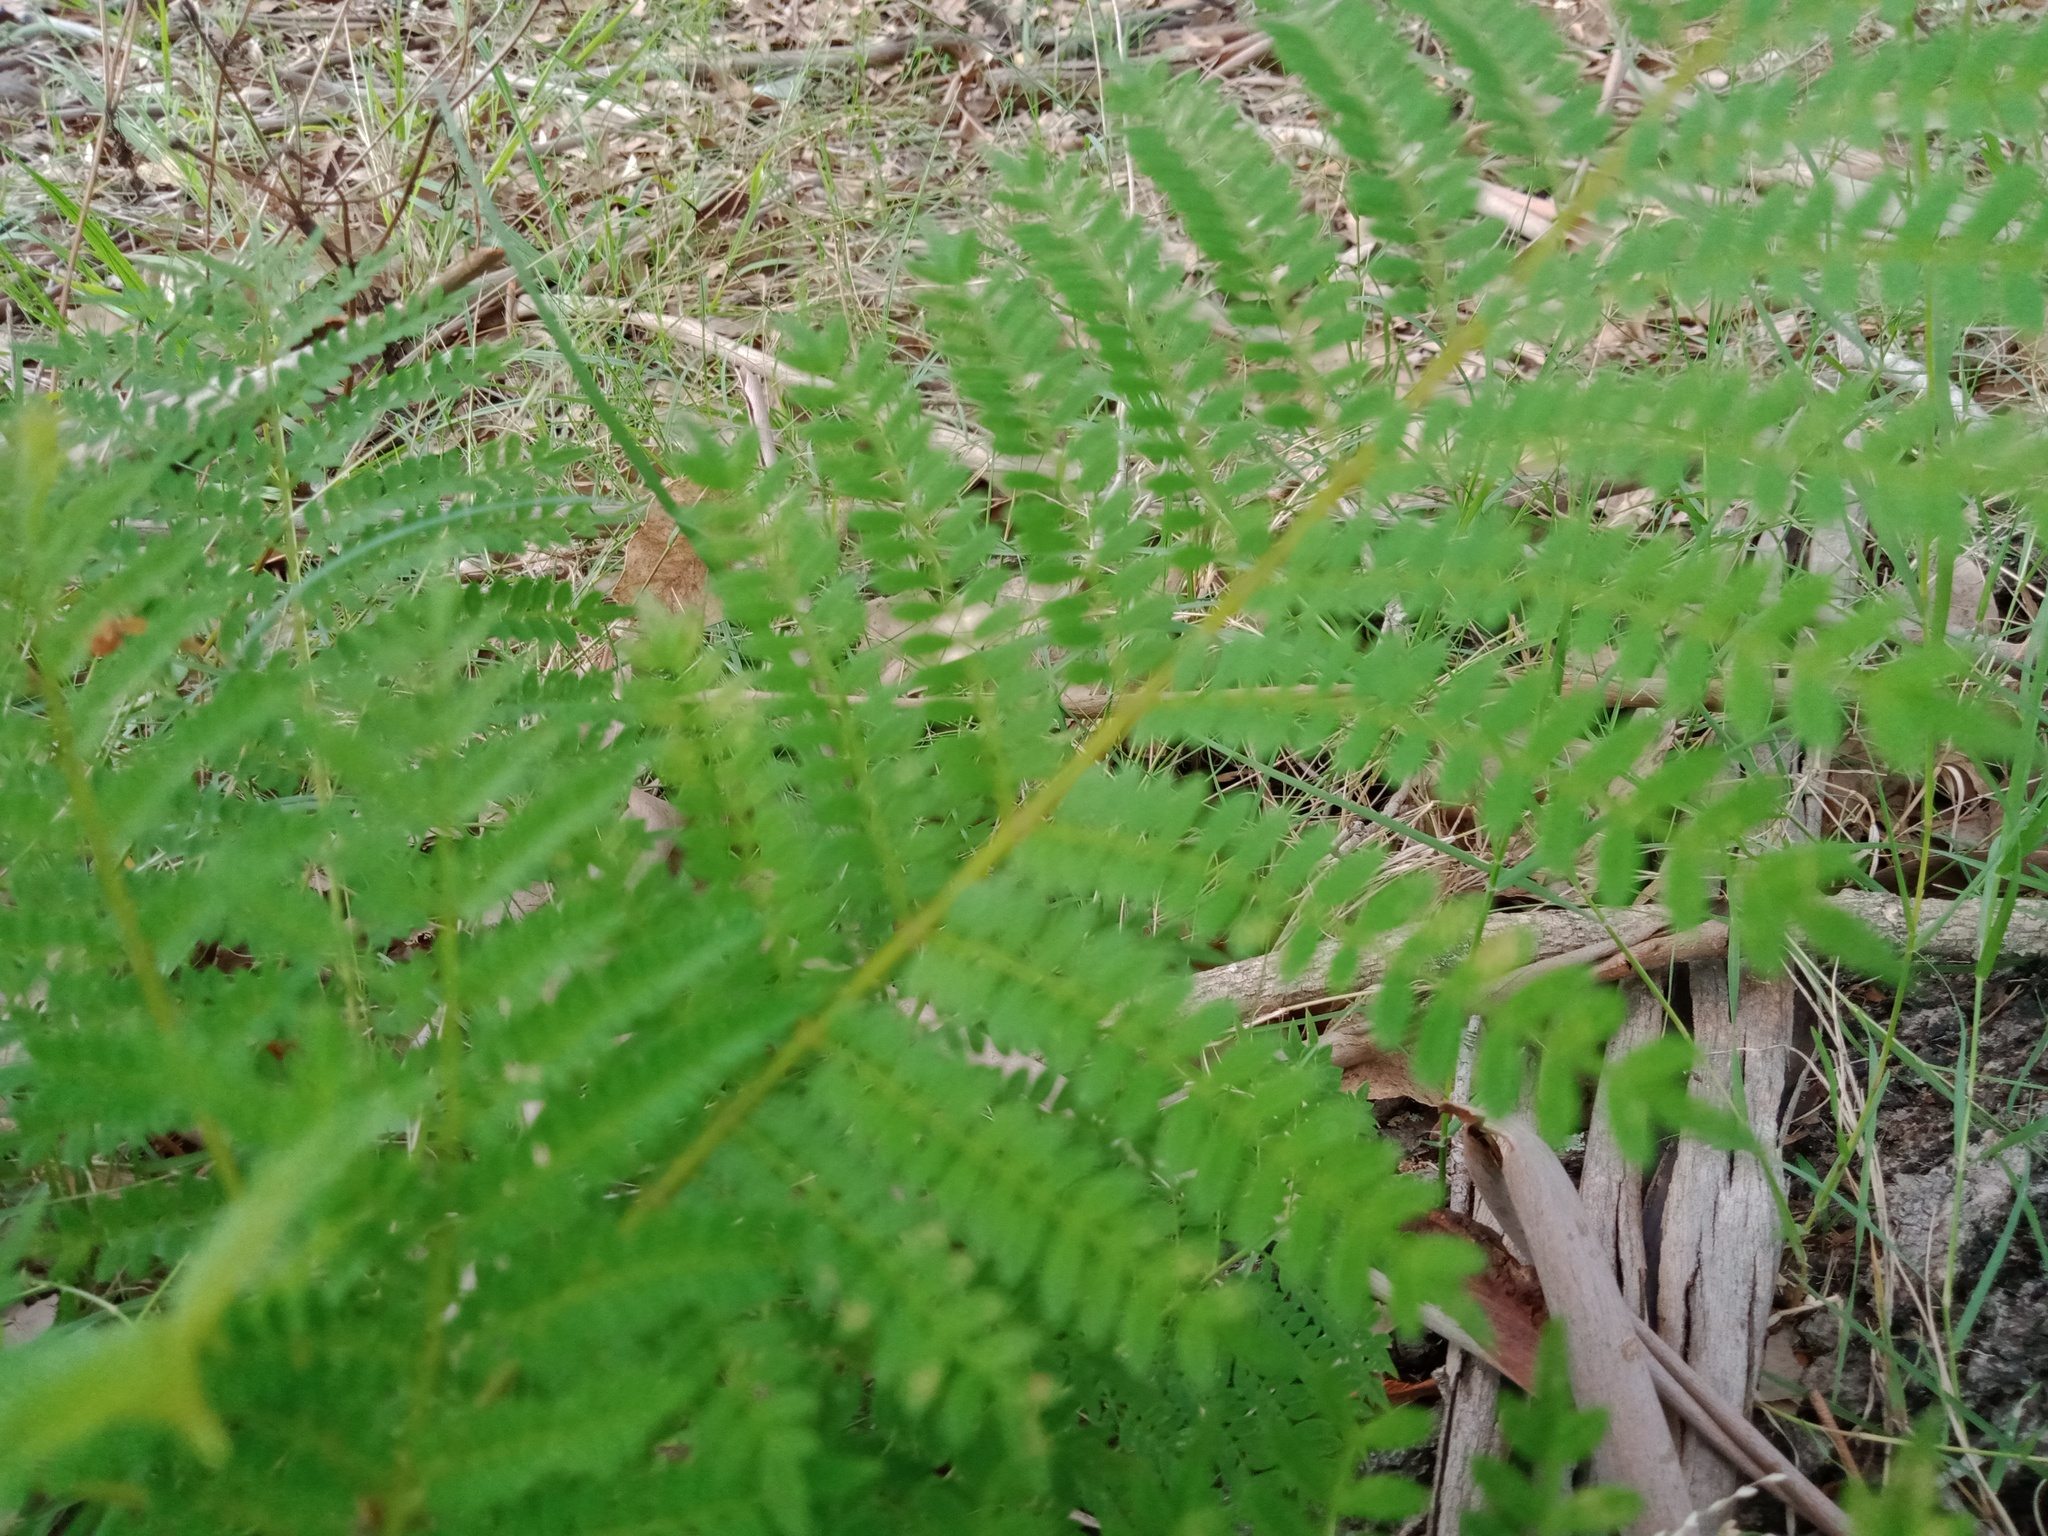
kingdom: Plantae
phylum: Tracheophyta
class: Magnoliopsida
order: Lamiales
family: Bignoniaceae
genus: Jacaranda
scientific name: Jacaranda mimosifolia
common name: Black poui
